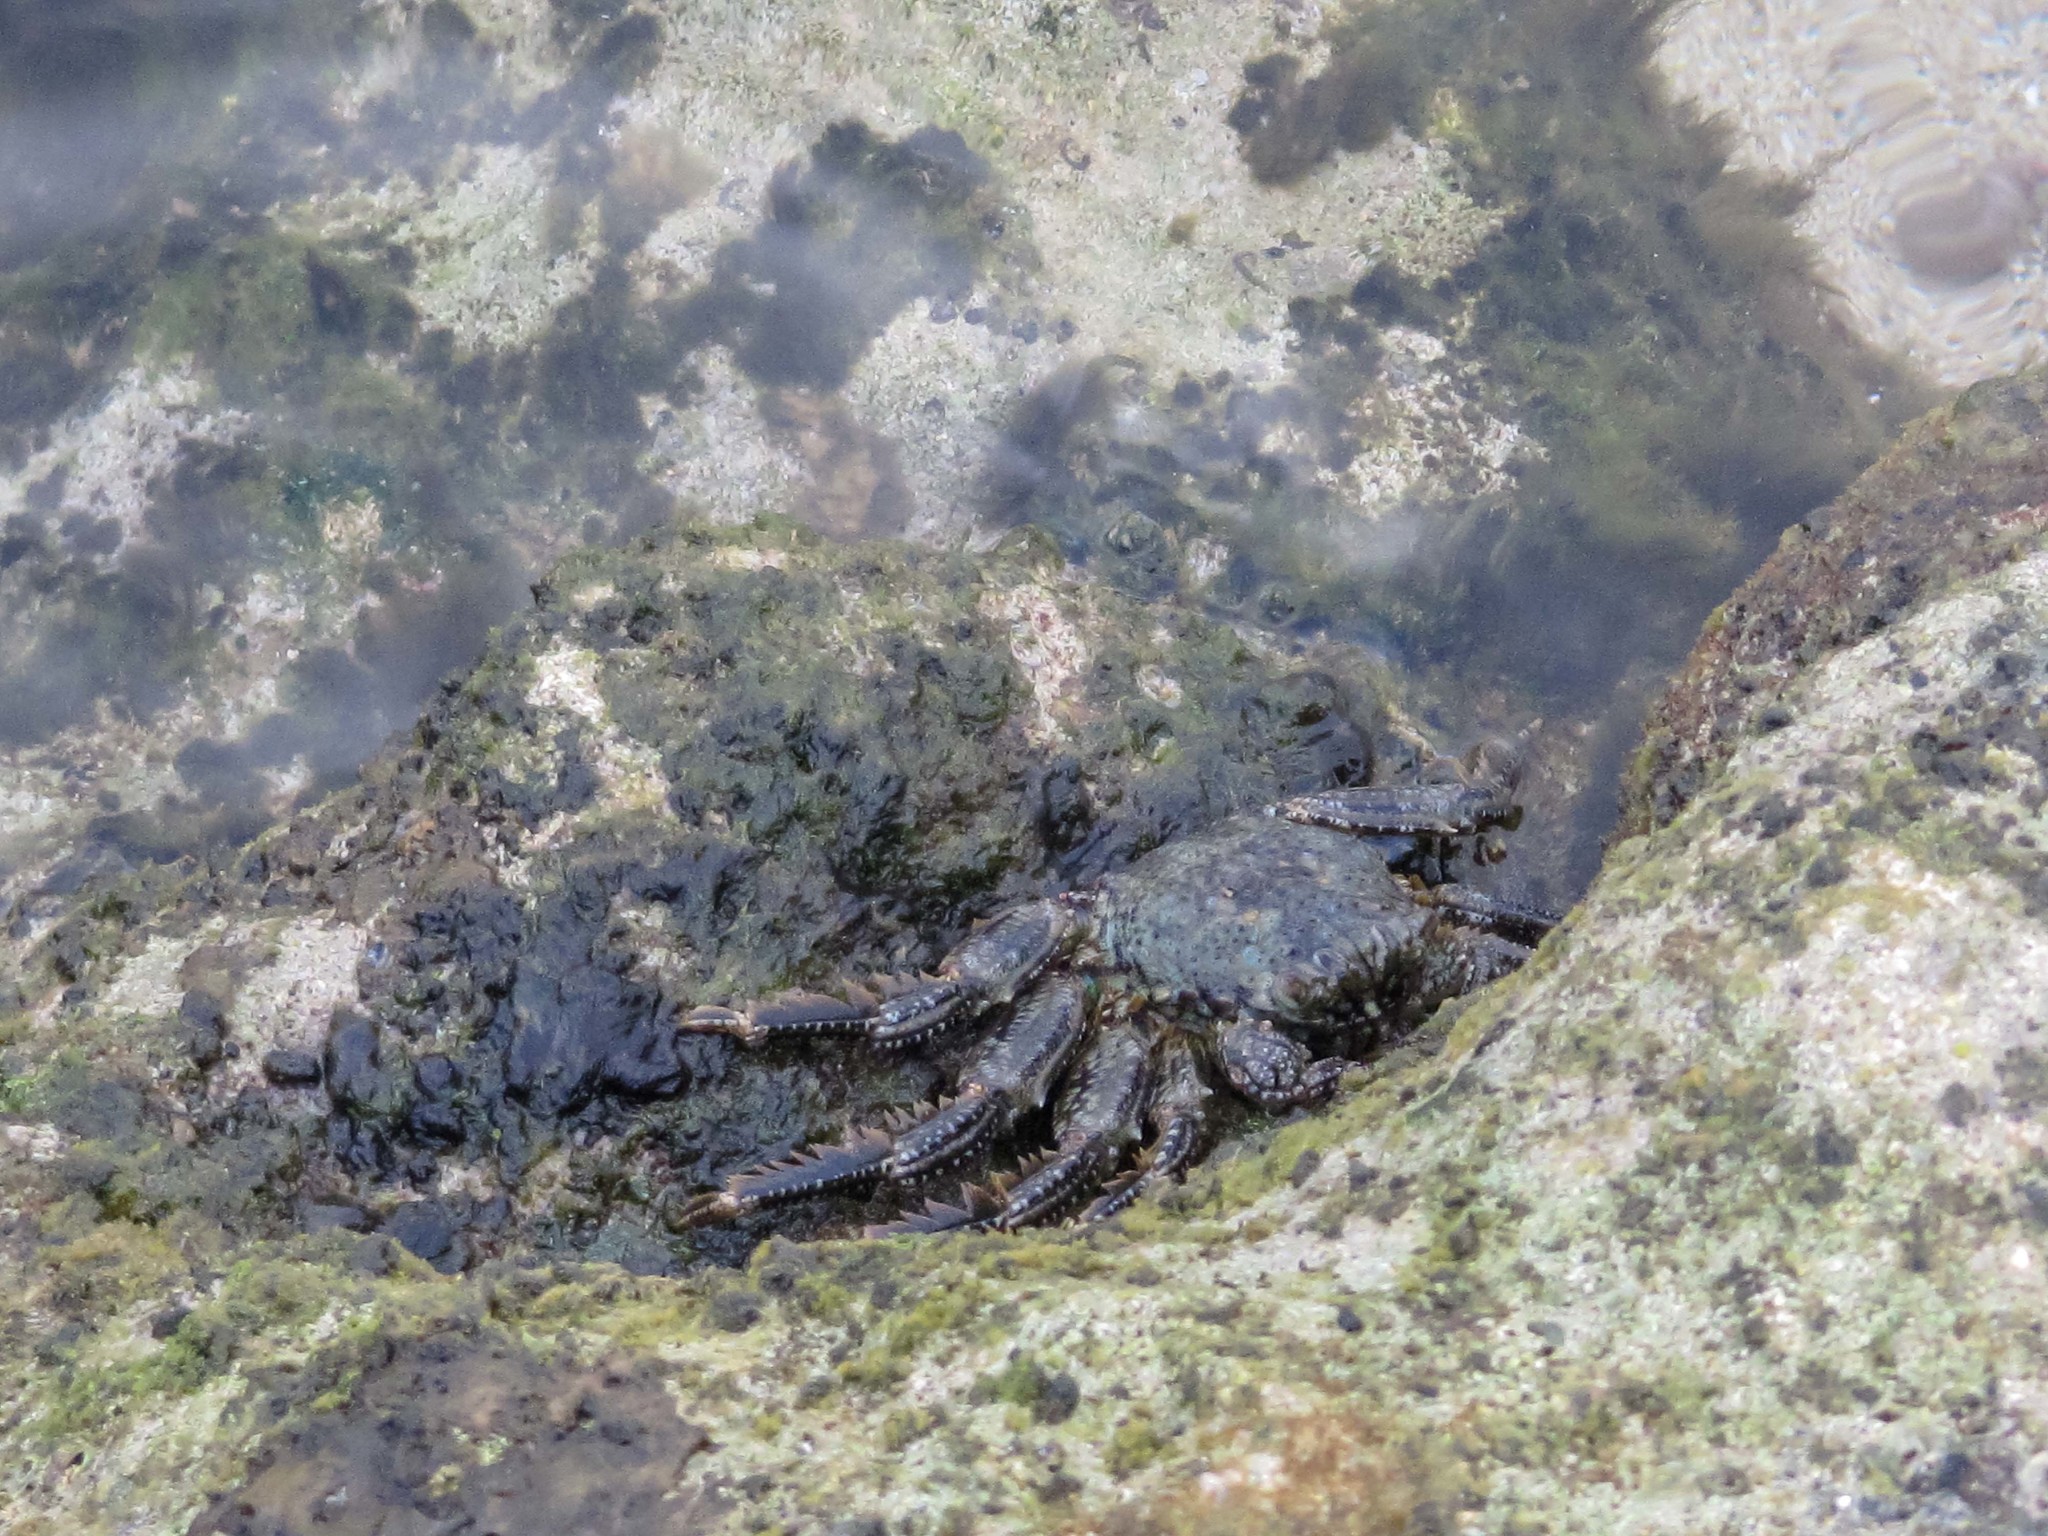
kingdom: Animalia
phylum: Arthropoda
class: Malacostraca
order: Decapoda
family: Plagusiidae
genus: Plagusia
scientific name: Plagusia squamosa
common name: Scaly rock crab
